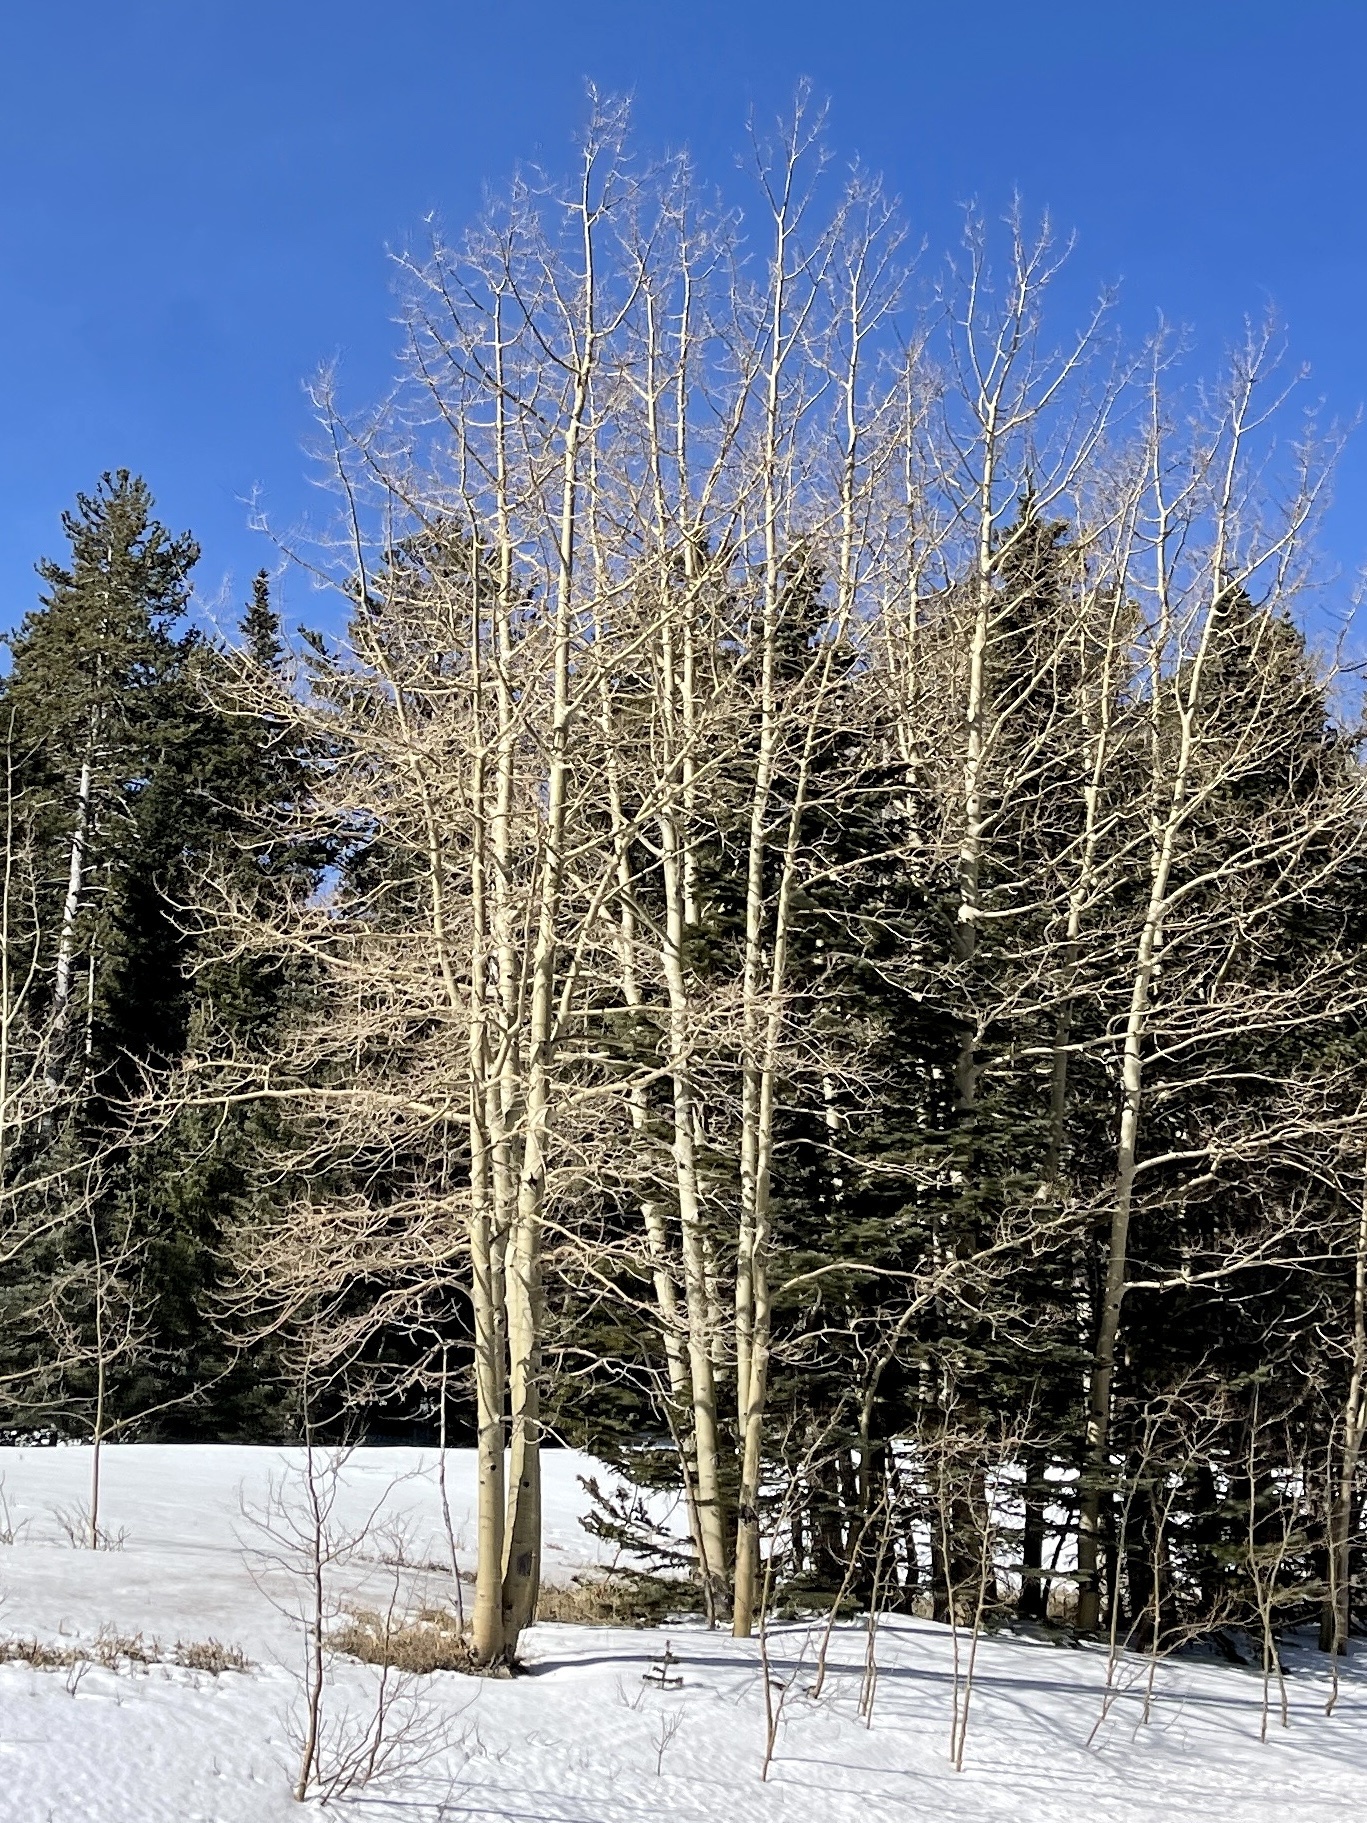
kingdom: Plantae
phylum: Tracheophyta
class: Magnoliopsida
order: Malpighiales
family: Salicaceae
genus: Populus
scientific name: Populus tremuloides
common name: Quaking aspen
